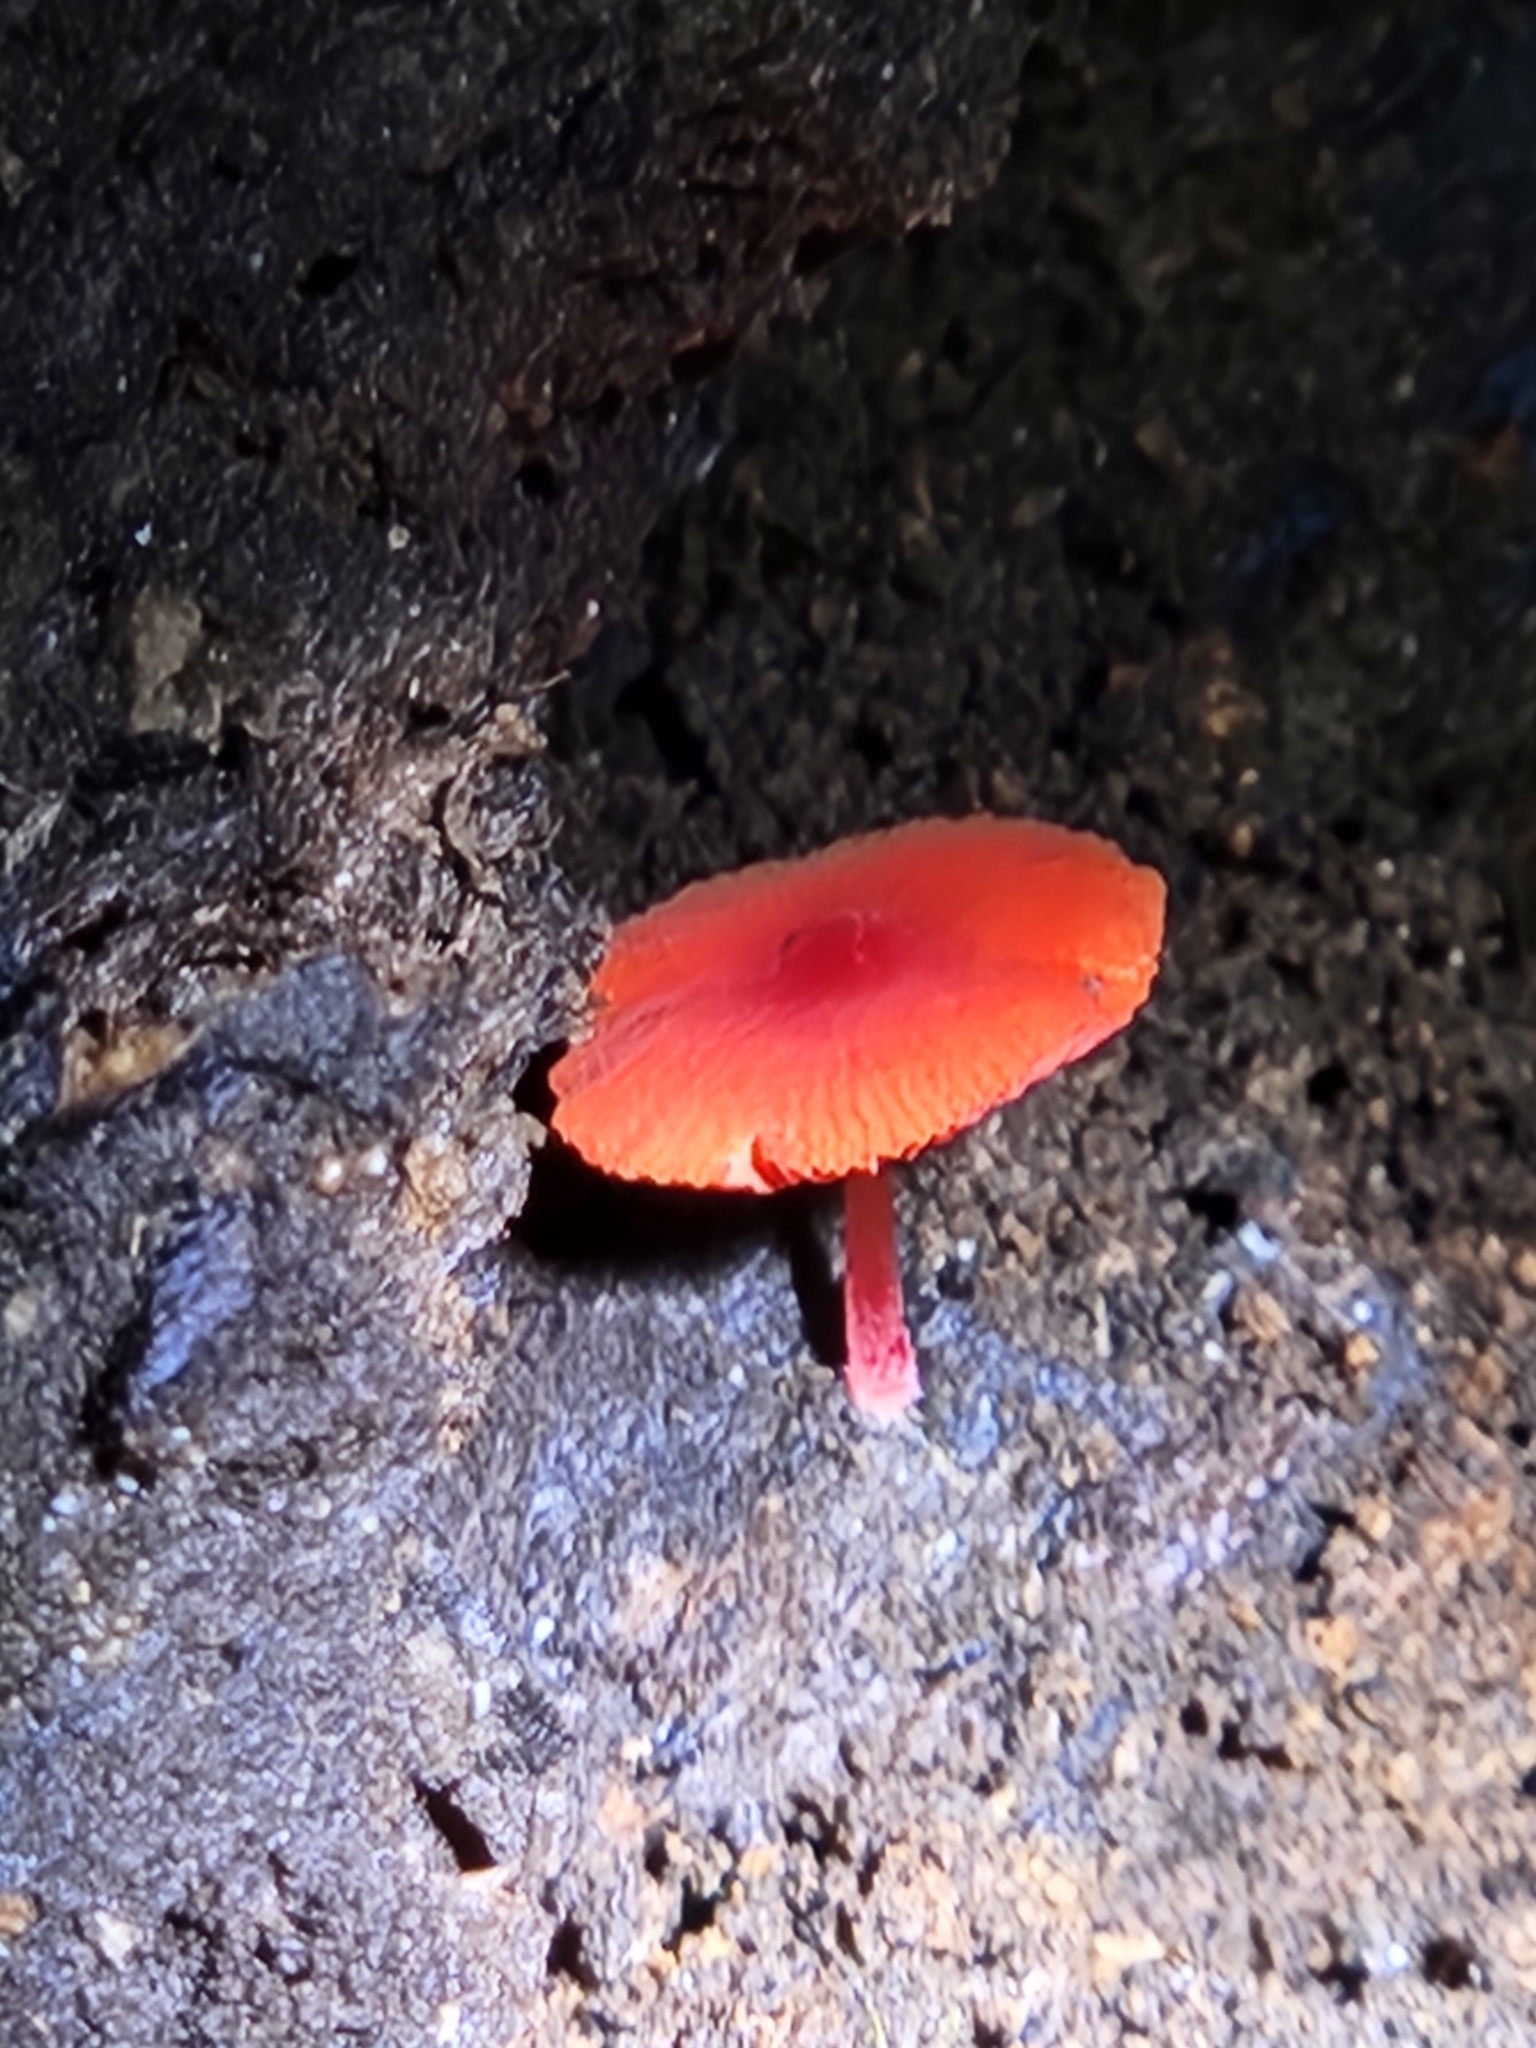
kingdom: Fungi
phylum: Basidiomycota
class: Agaricomycetes
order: Agaricales
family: Pluteaceae
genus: Pluteus
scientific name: Pluteus horakianus
